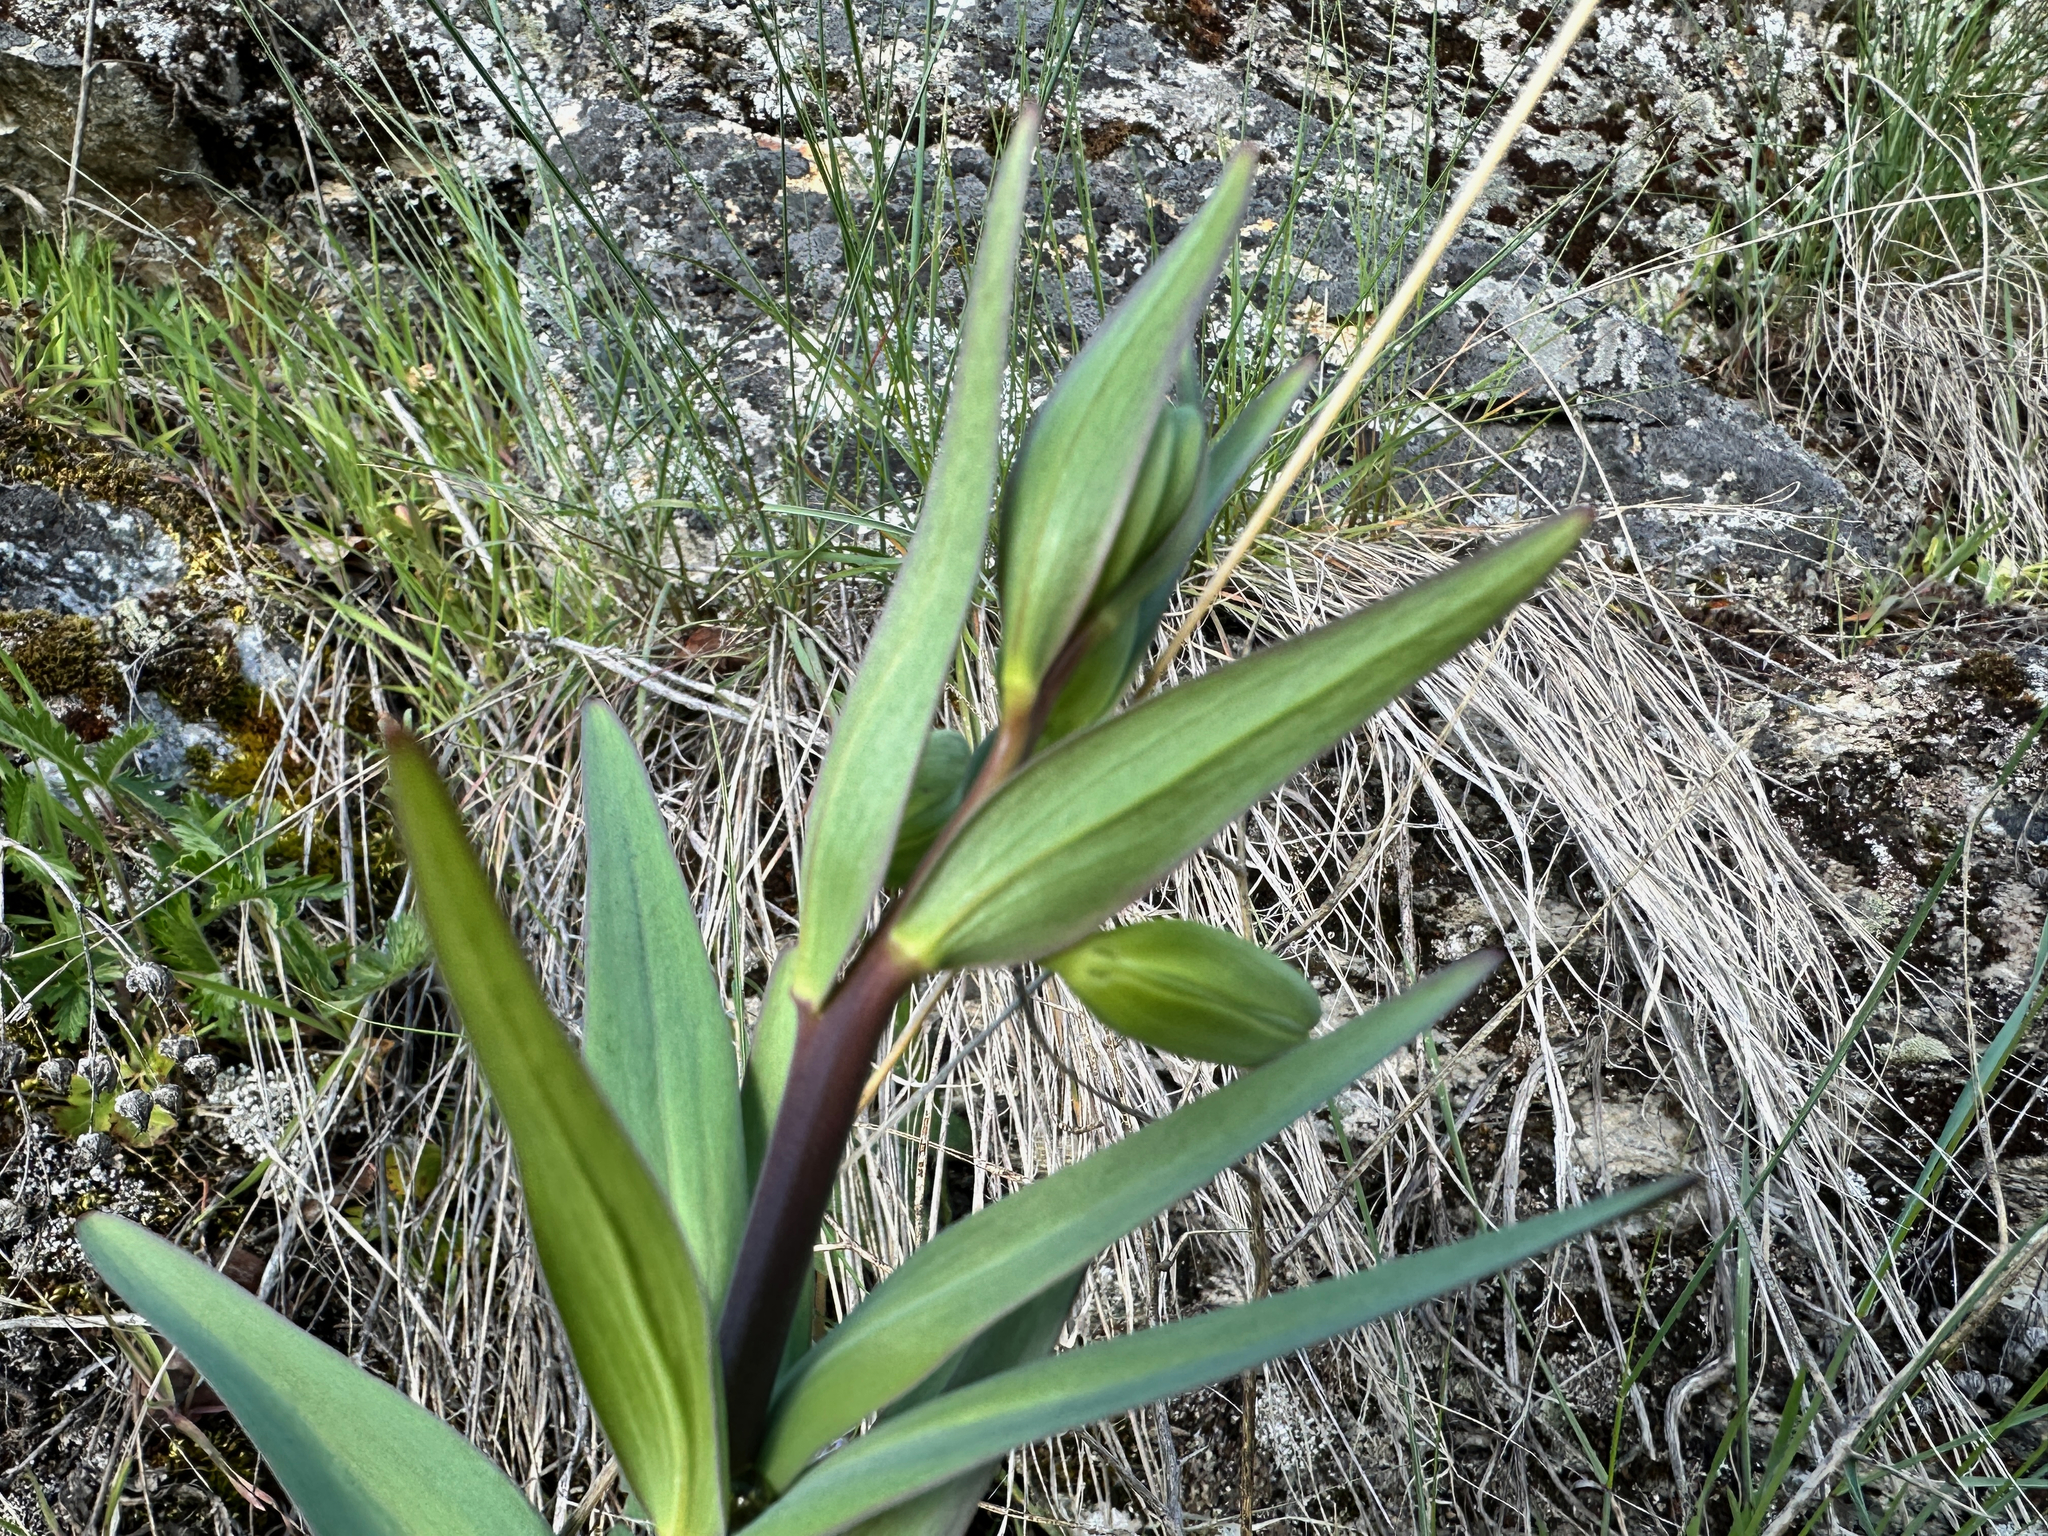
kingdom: Plantae
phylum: Tracheophyta
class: Liliopsida
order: Liliales
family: Liliaceae
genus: Fritillaria
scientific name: Fritillaria affinis
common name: Ojai fritillary
